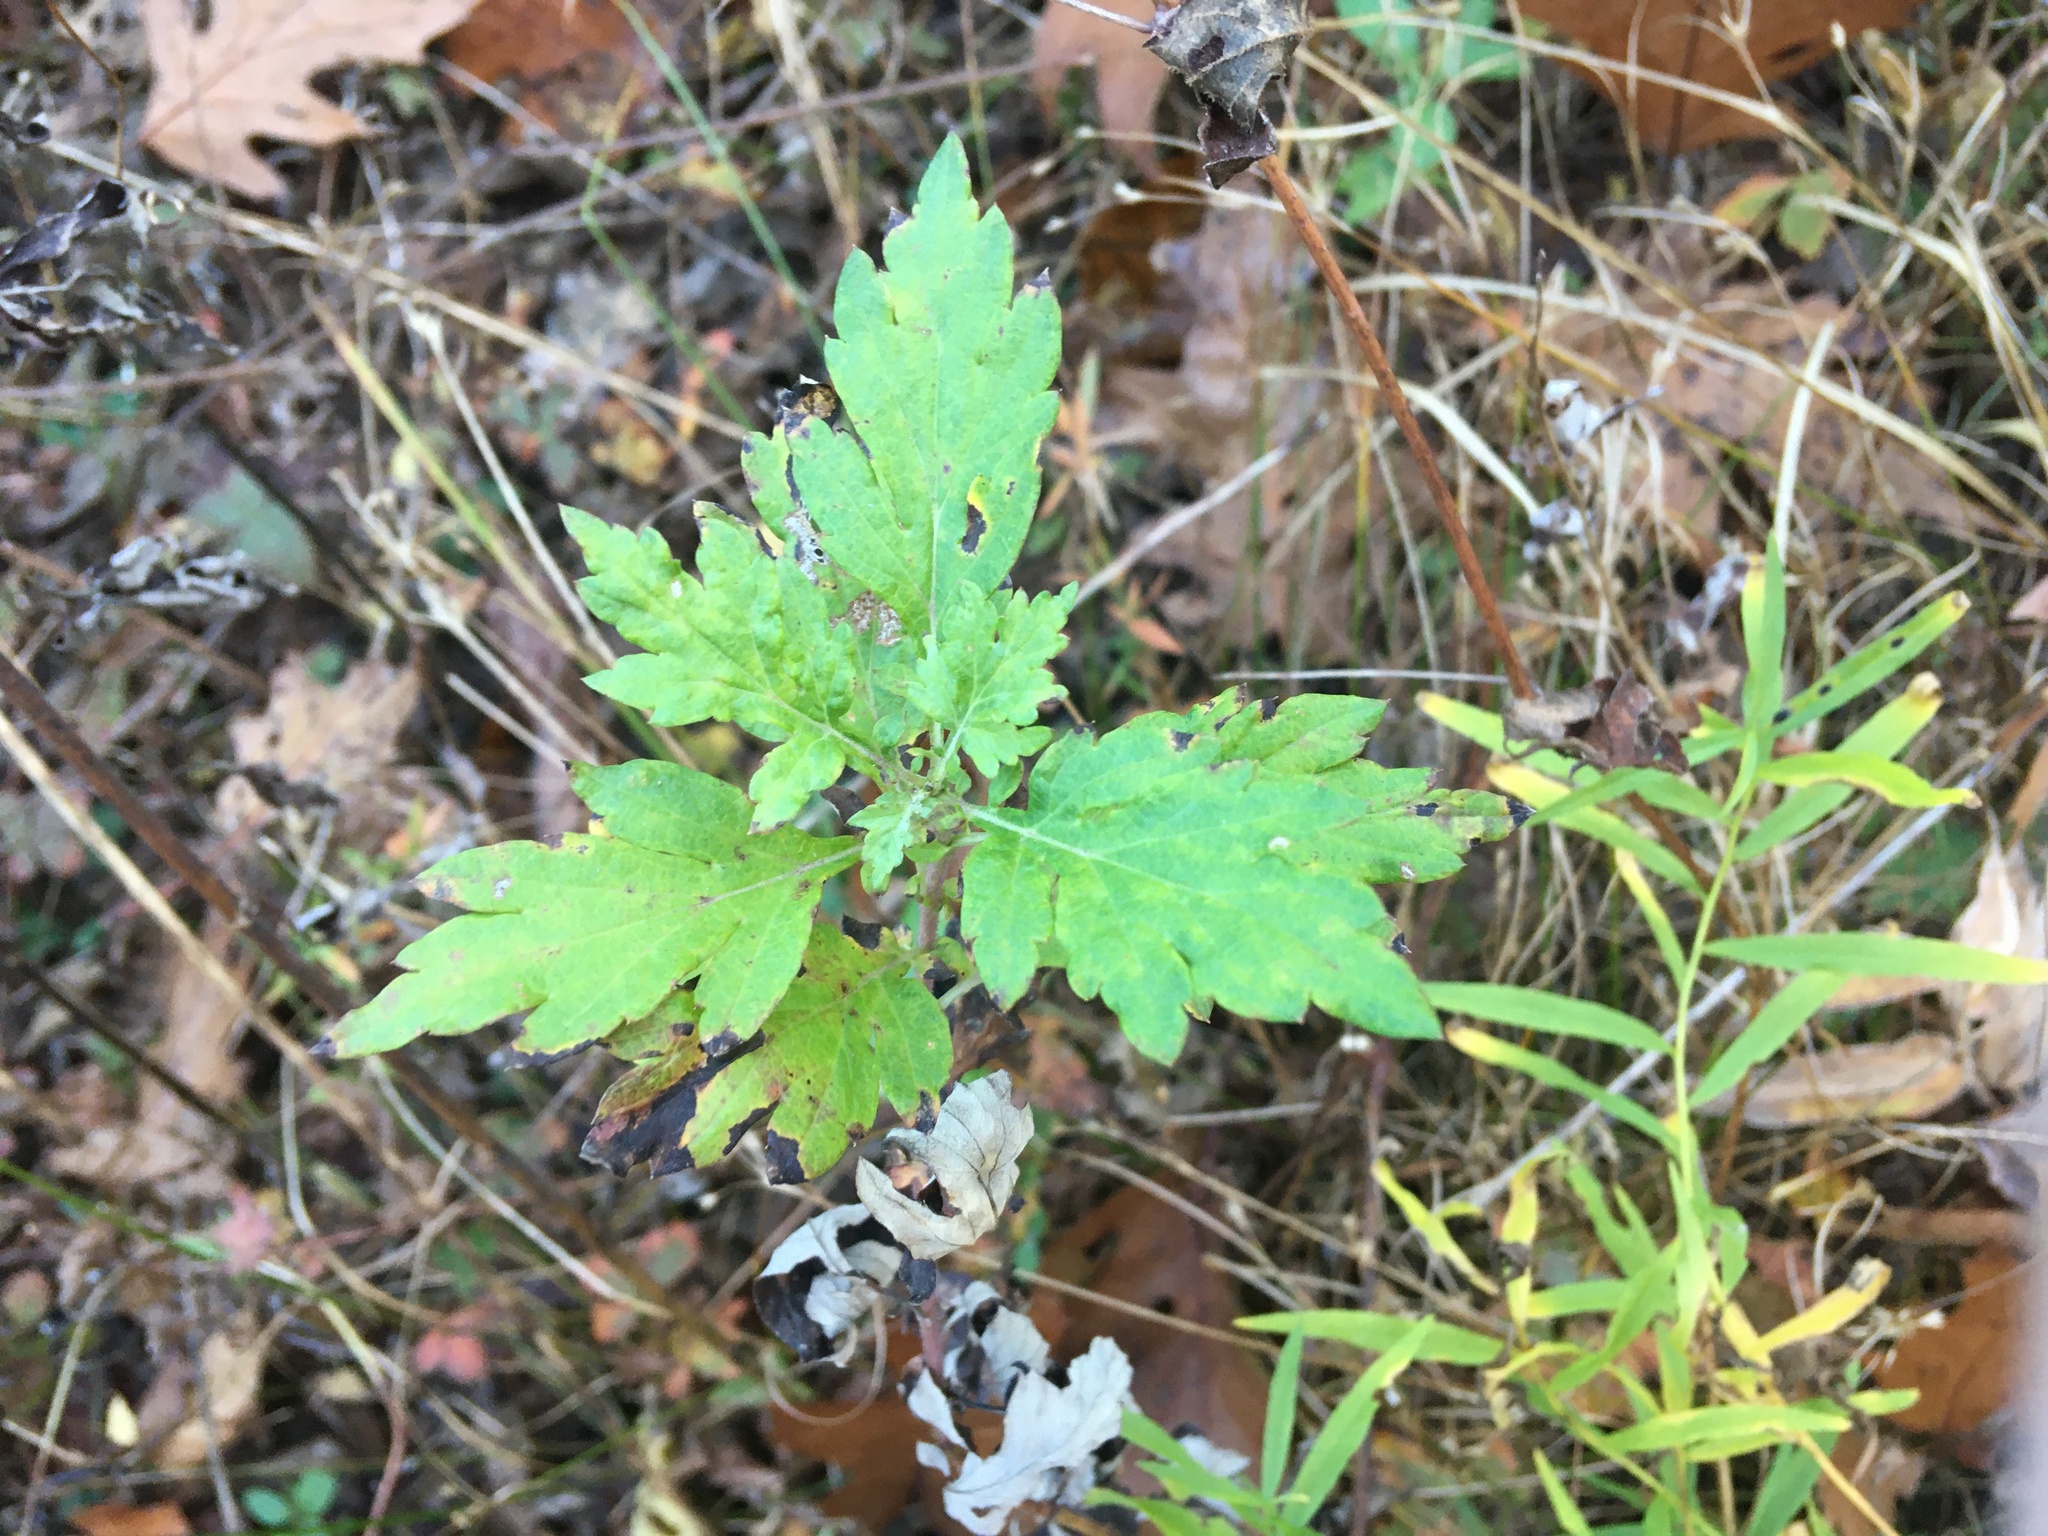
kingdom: Plantae
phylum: Tracheophyta
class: Magnoliopsida
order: Asterales
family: Asteraceae
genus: Artemisia
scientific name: Artemisia vulgaris
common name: Mugwort
